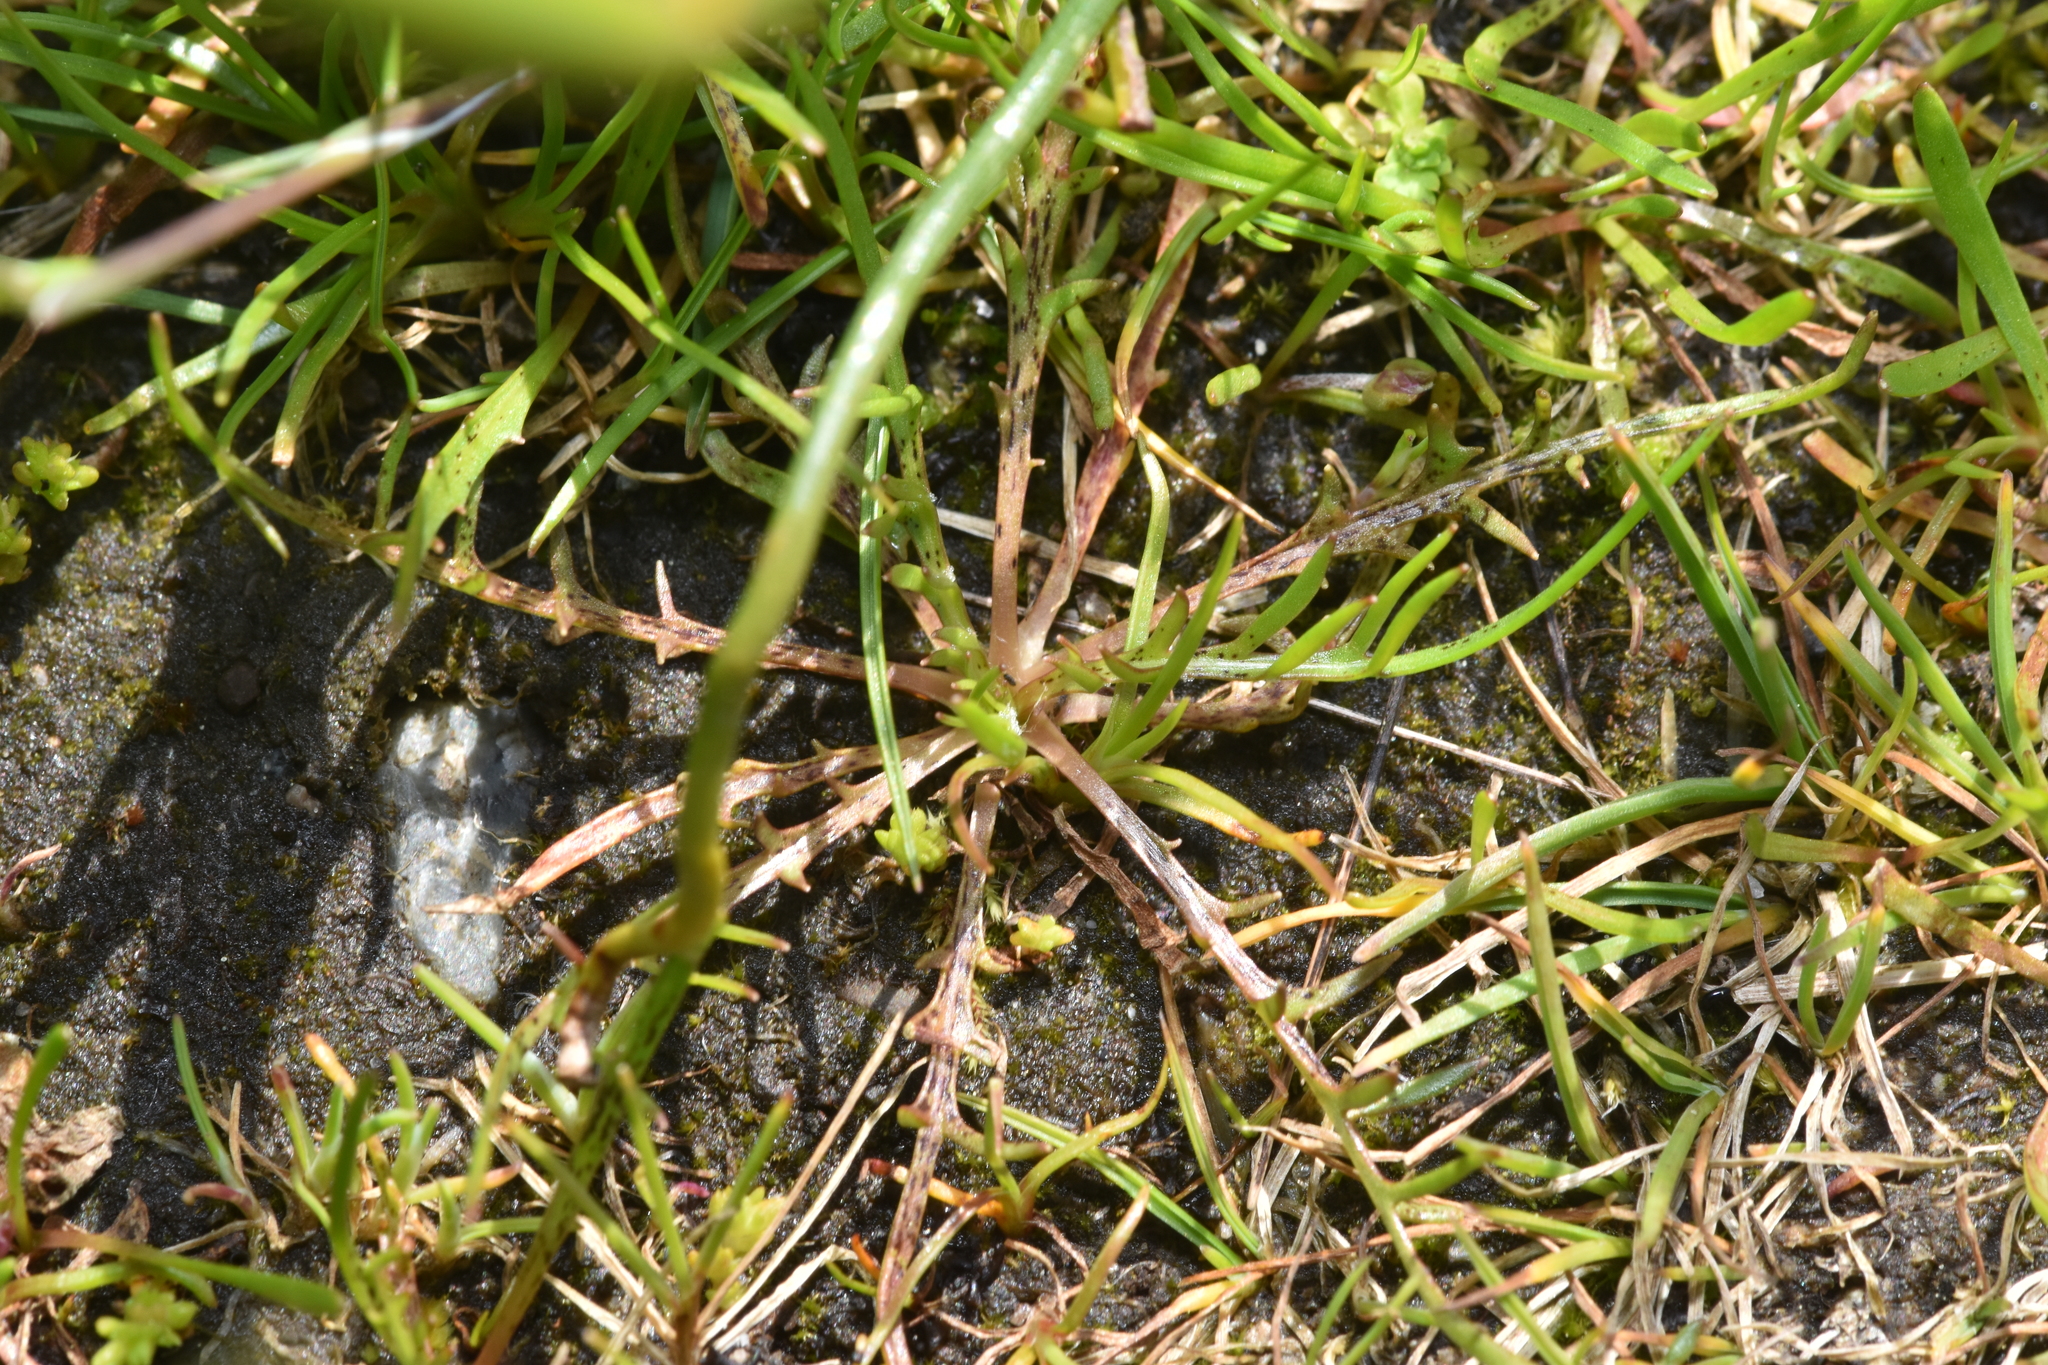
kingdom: Plantae
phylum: Tracheophyta
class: Magnoliopsida
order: Asterales
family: Asteraceae
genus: Microseris
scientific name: Microseris bigelovii
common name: Coast microseris
